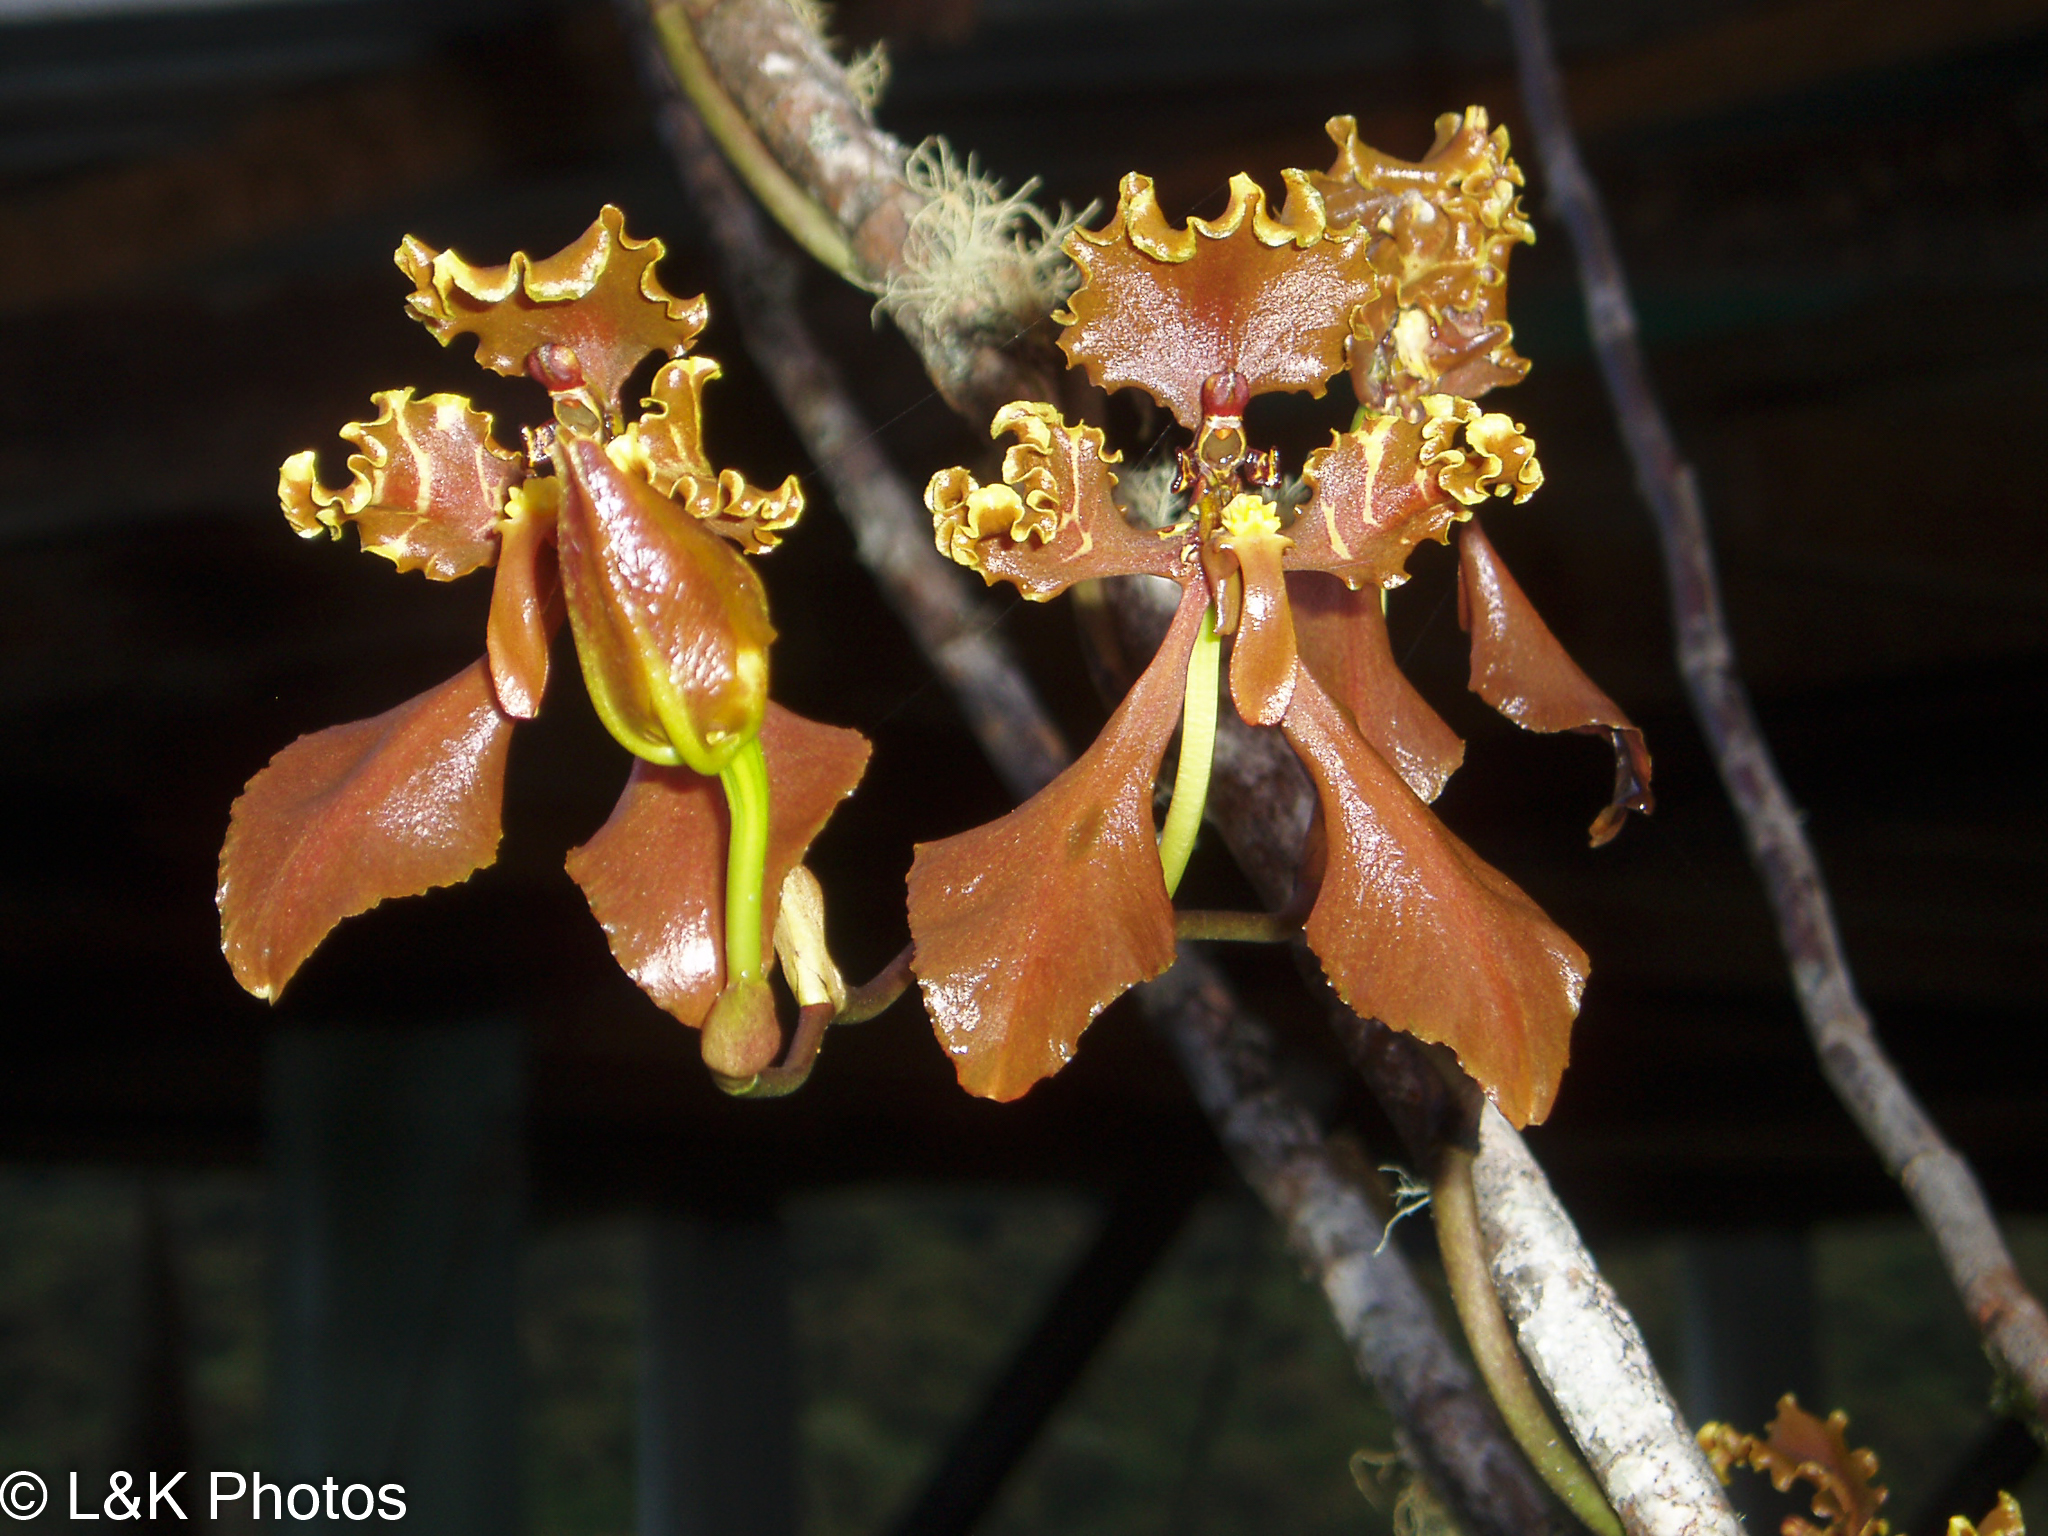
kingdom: Plantae
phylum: Tracheophyta
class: Liliopsida
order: Asparagales
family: Orchidaceae
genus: Cyrtochilum
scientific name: Cyrtochilum trifurcatum
